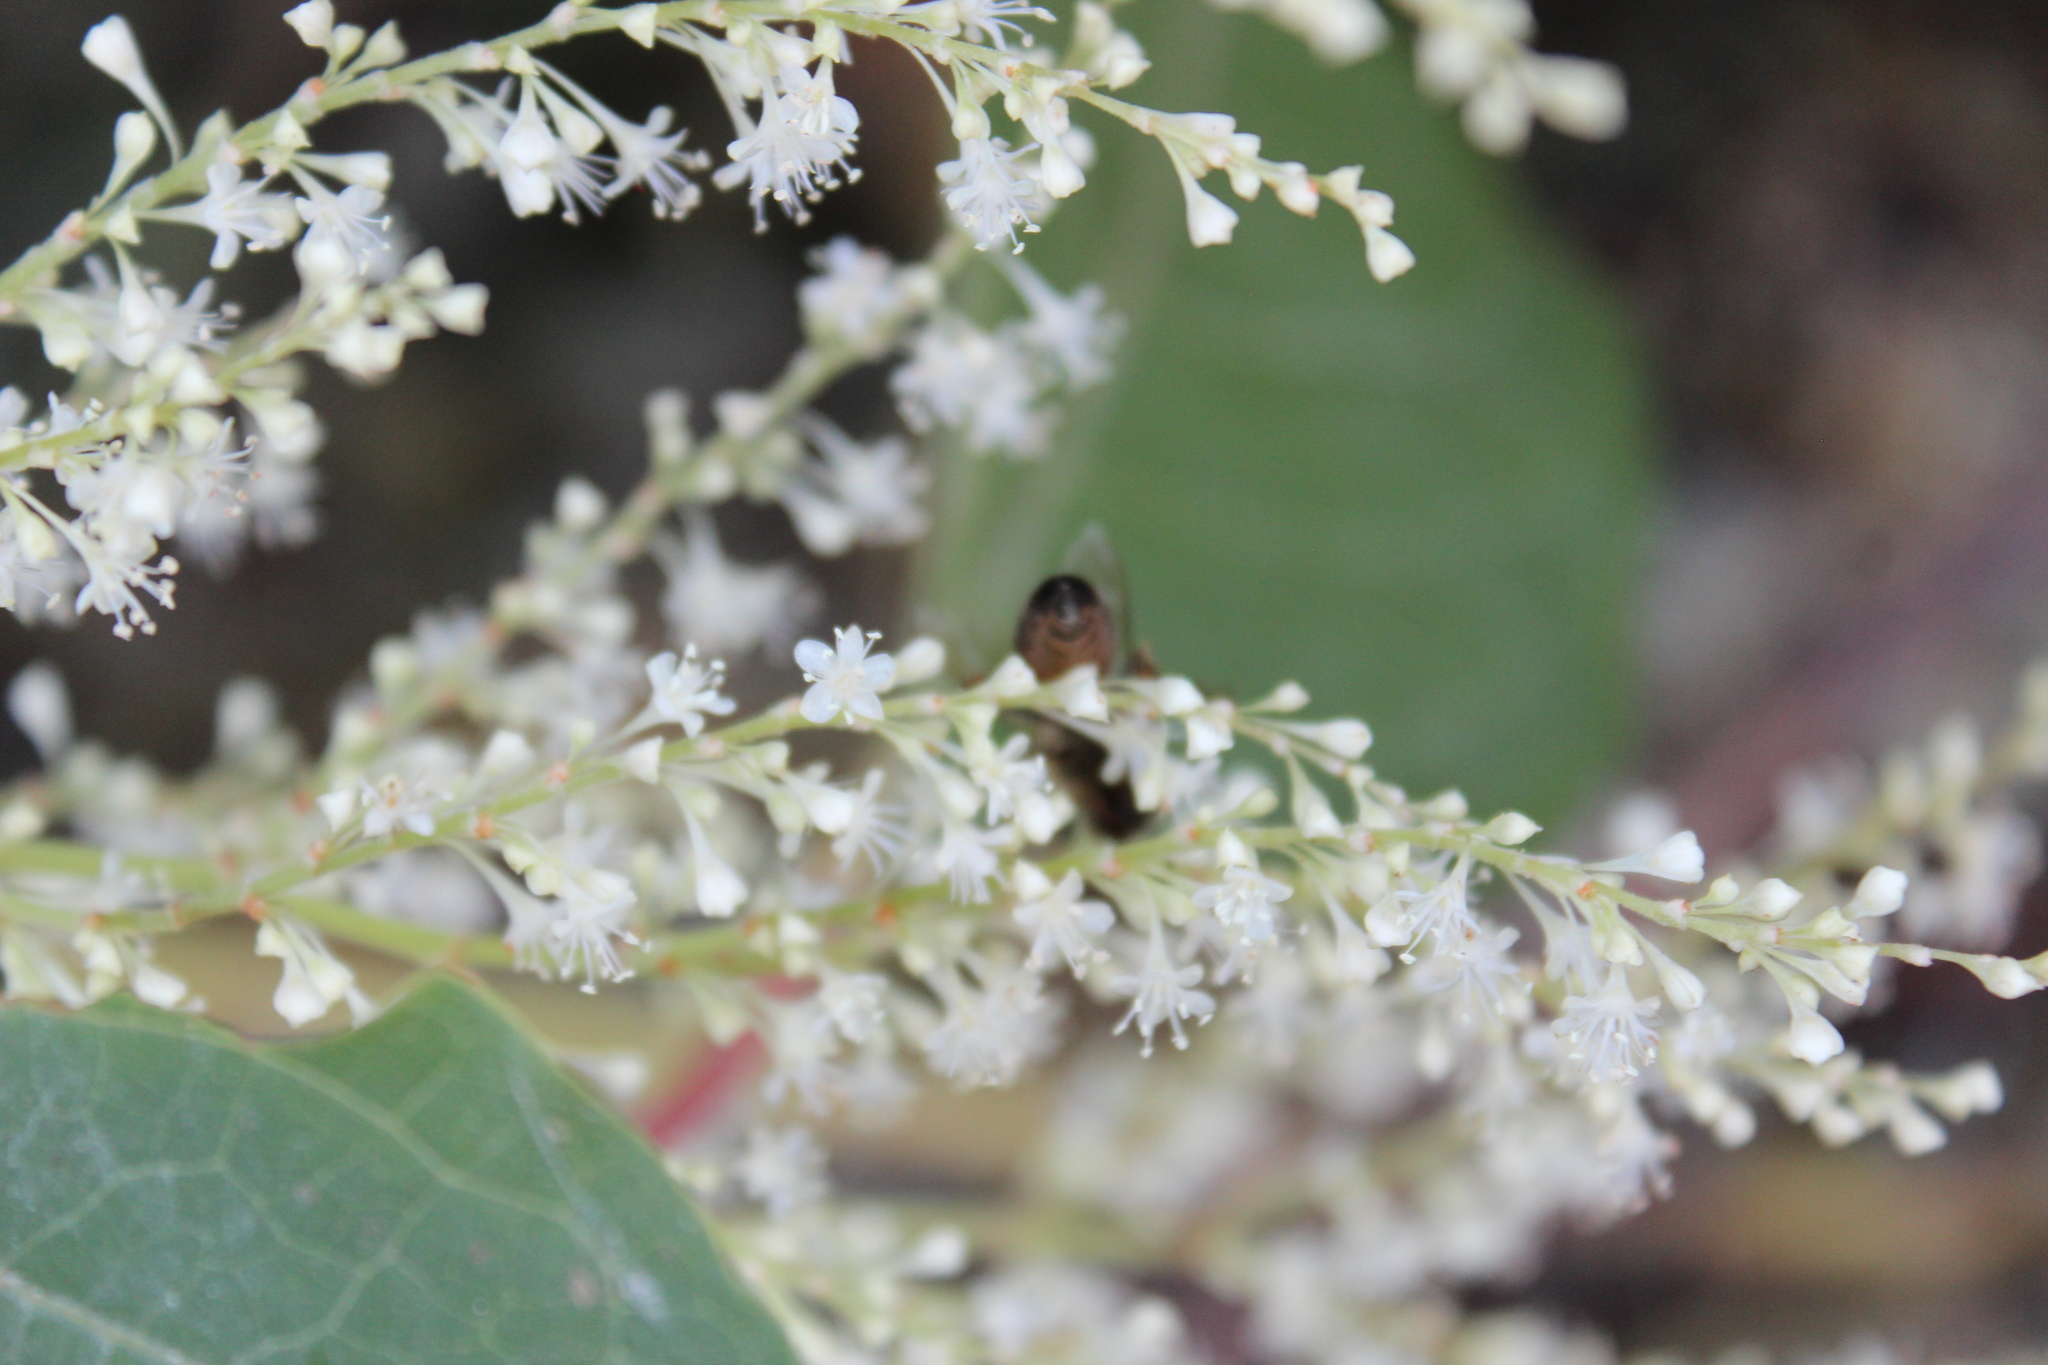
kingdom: Animalia
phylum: Arthropoda
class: Insecta
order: Hymenoptera
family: Apidae
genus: Apis
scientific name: Apis mellifera
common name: Honey bee
